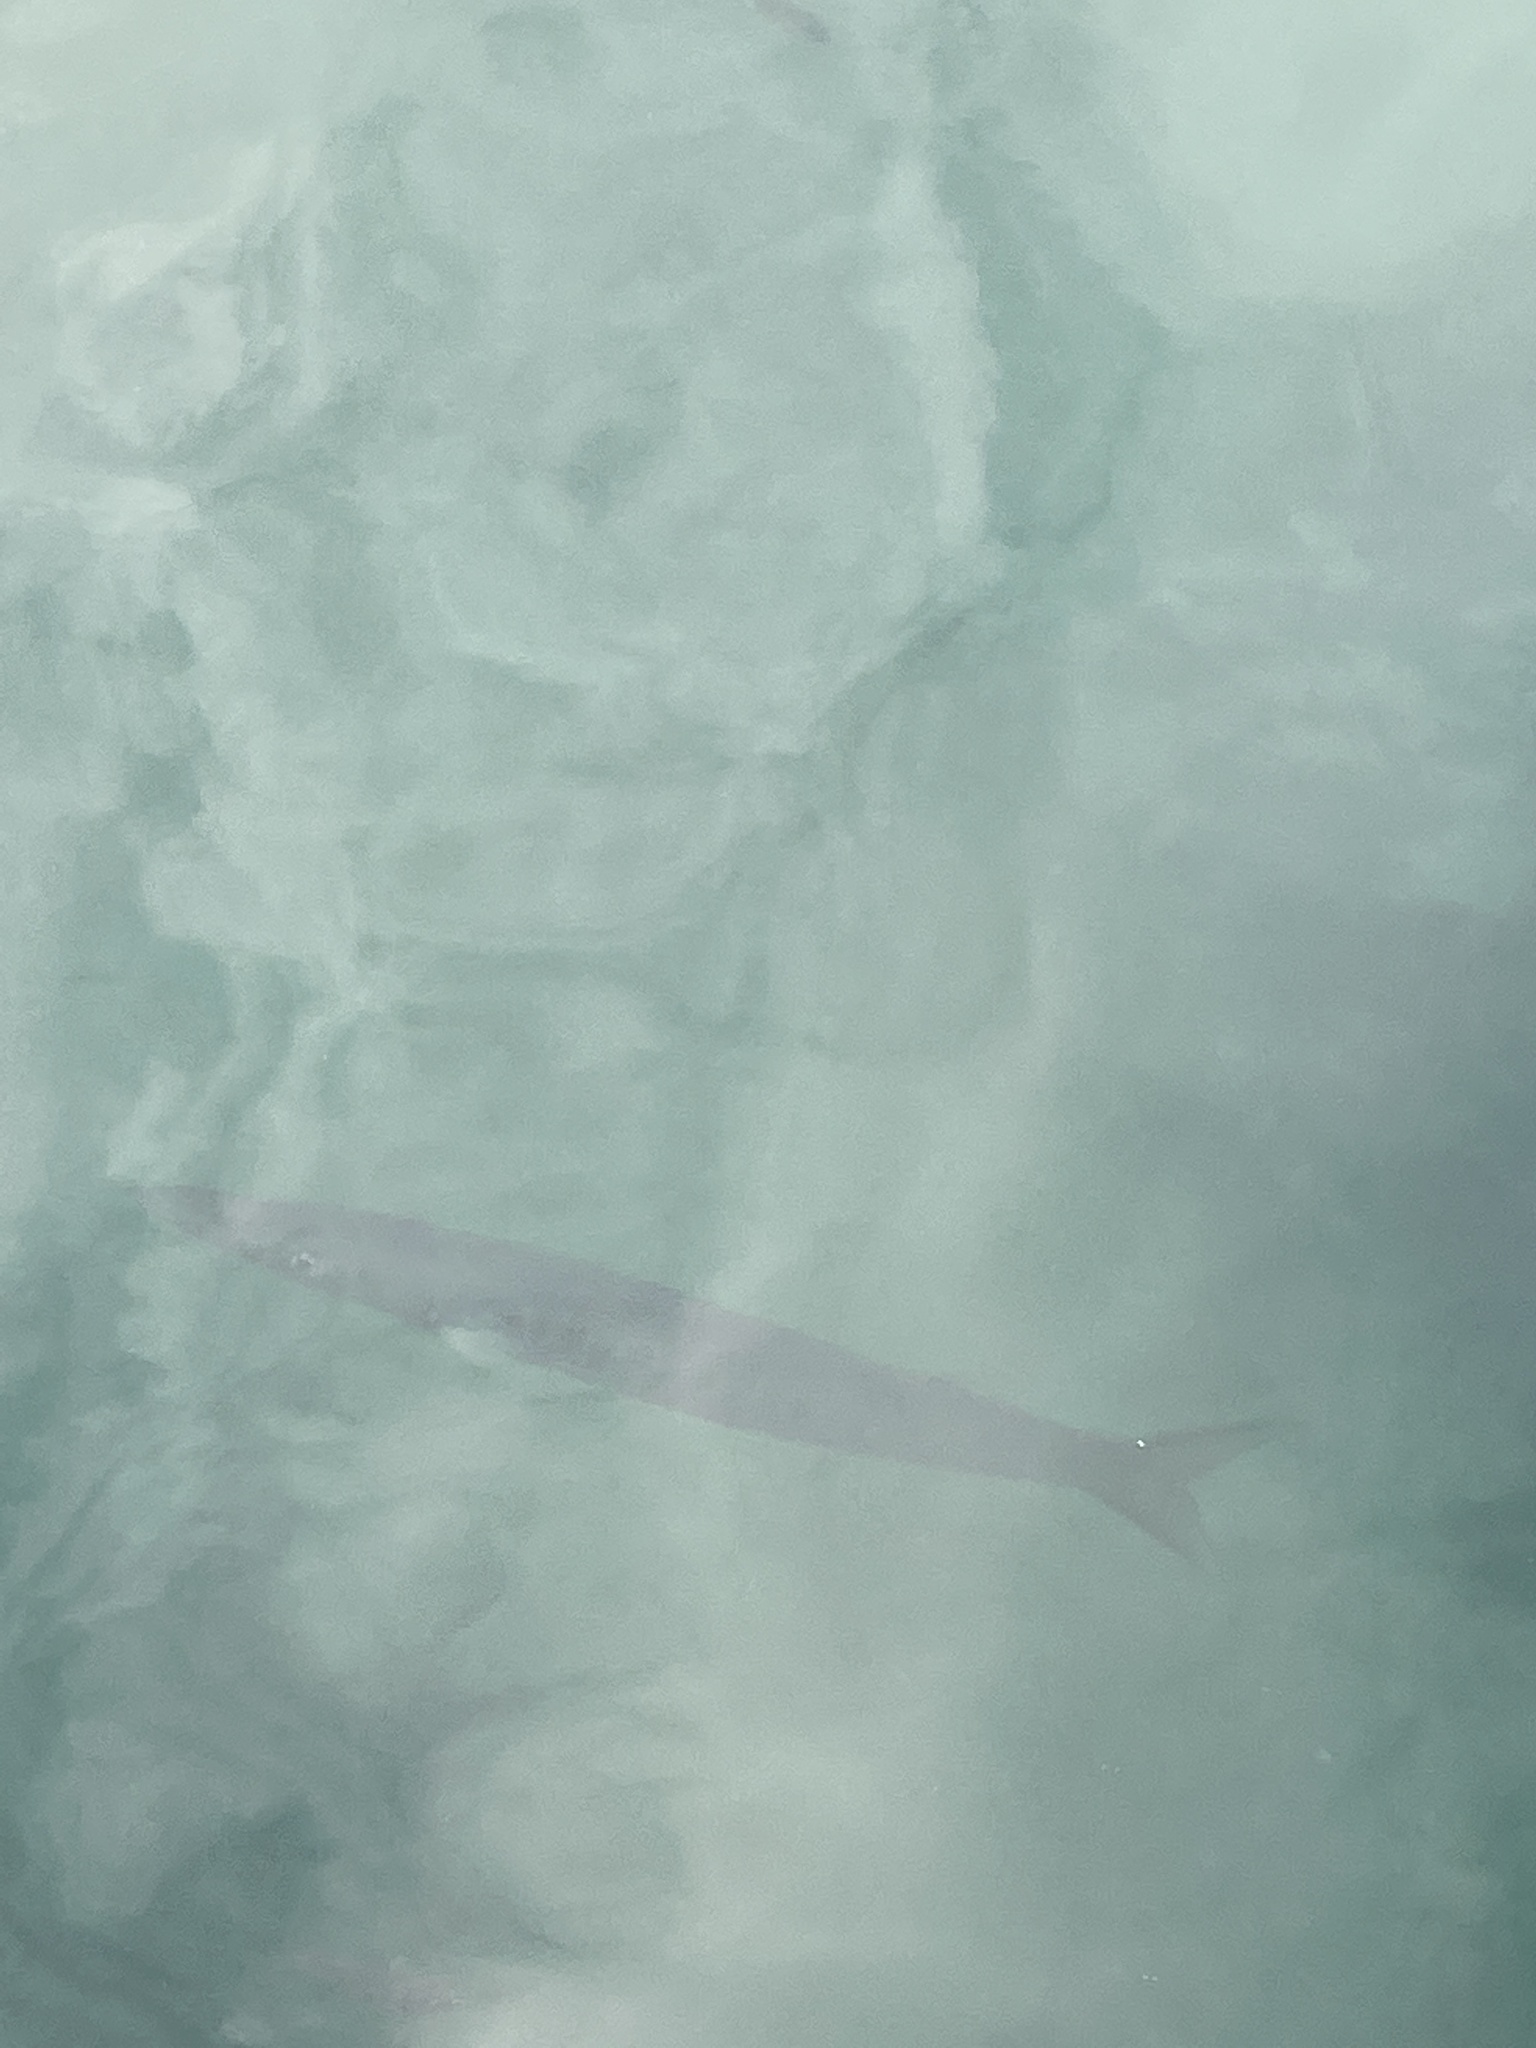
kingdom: Animalia
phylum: Chordata
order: Perciformes
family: Sphyraenidae
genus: Sphyraena
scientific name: Sphyraena viridensis
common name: Yellowmouth barracuda
